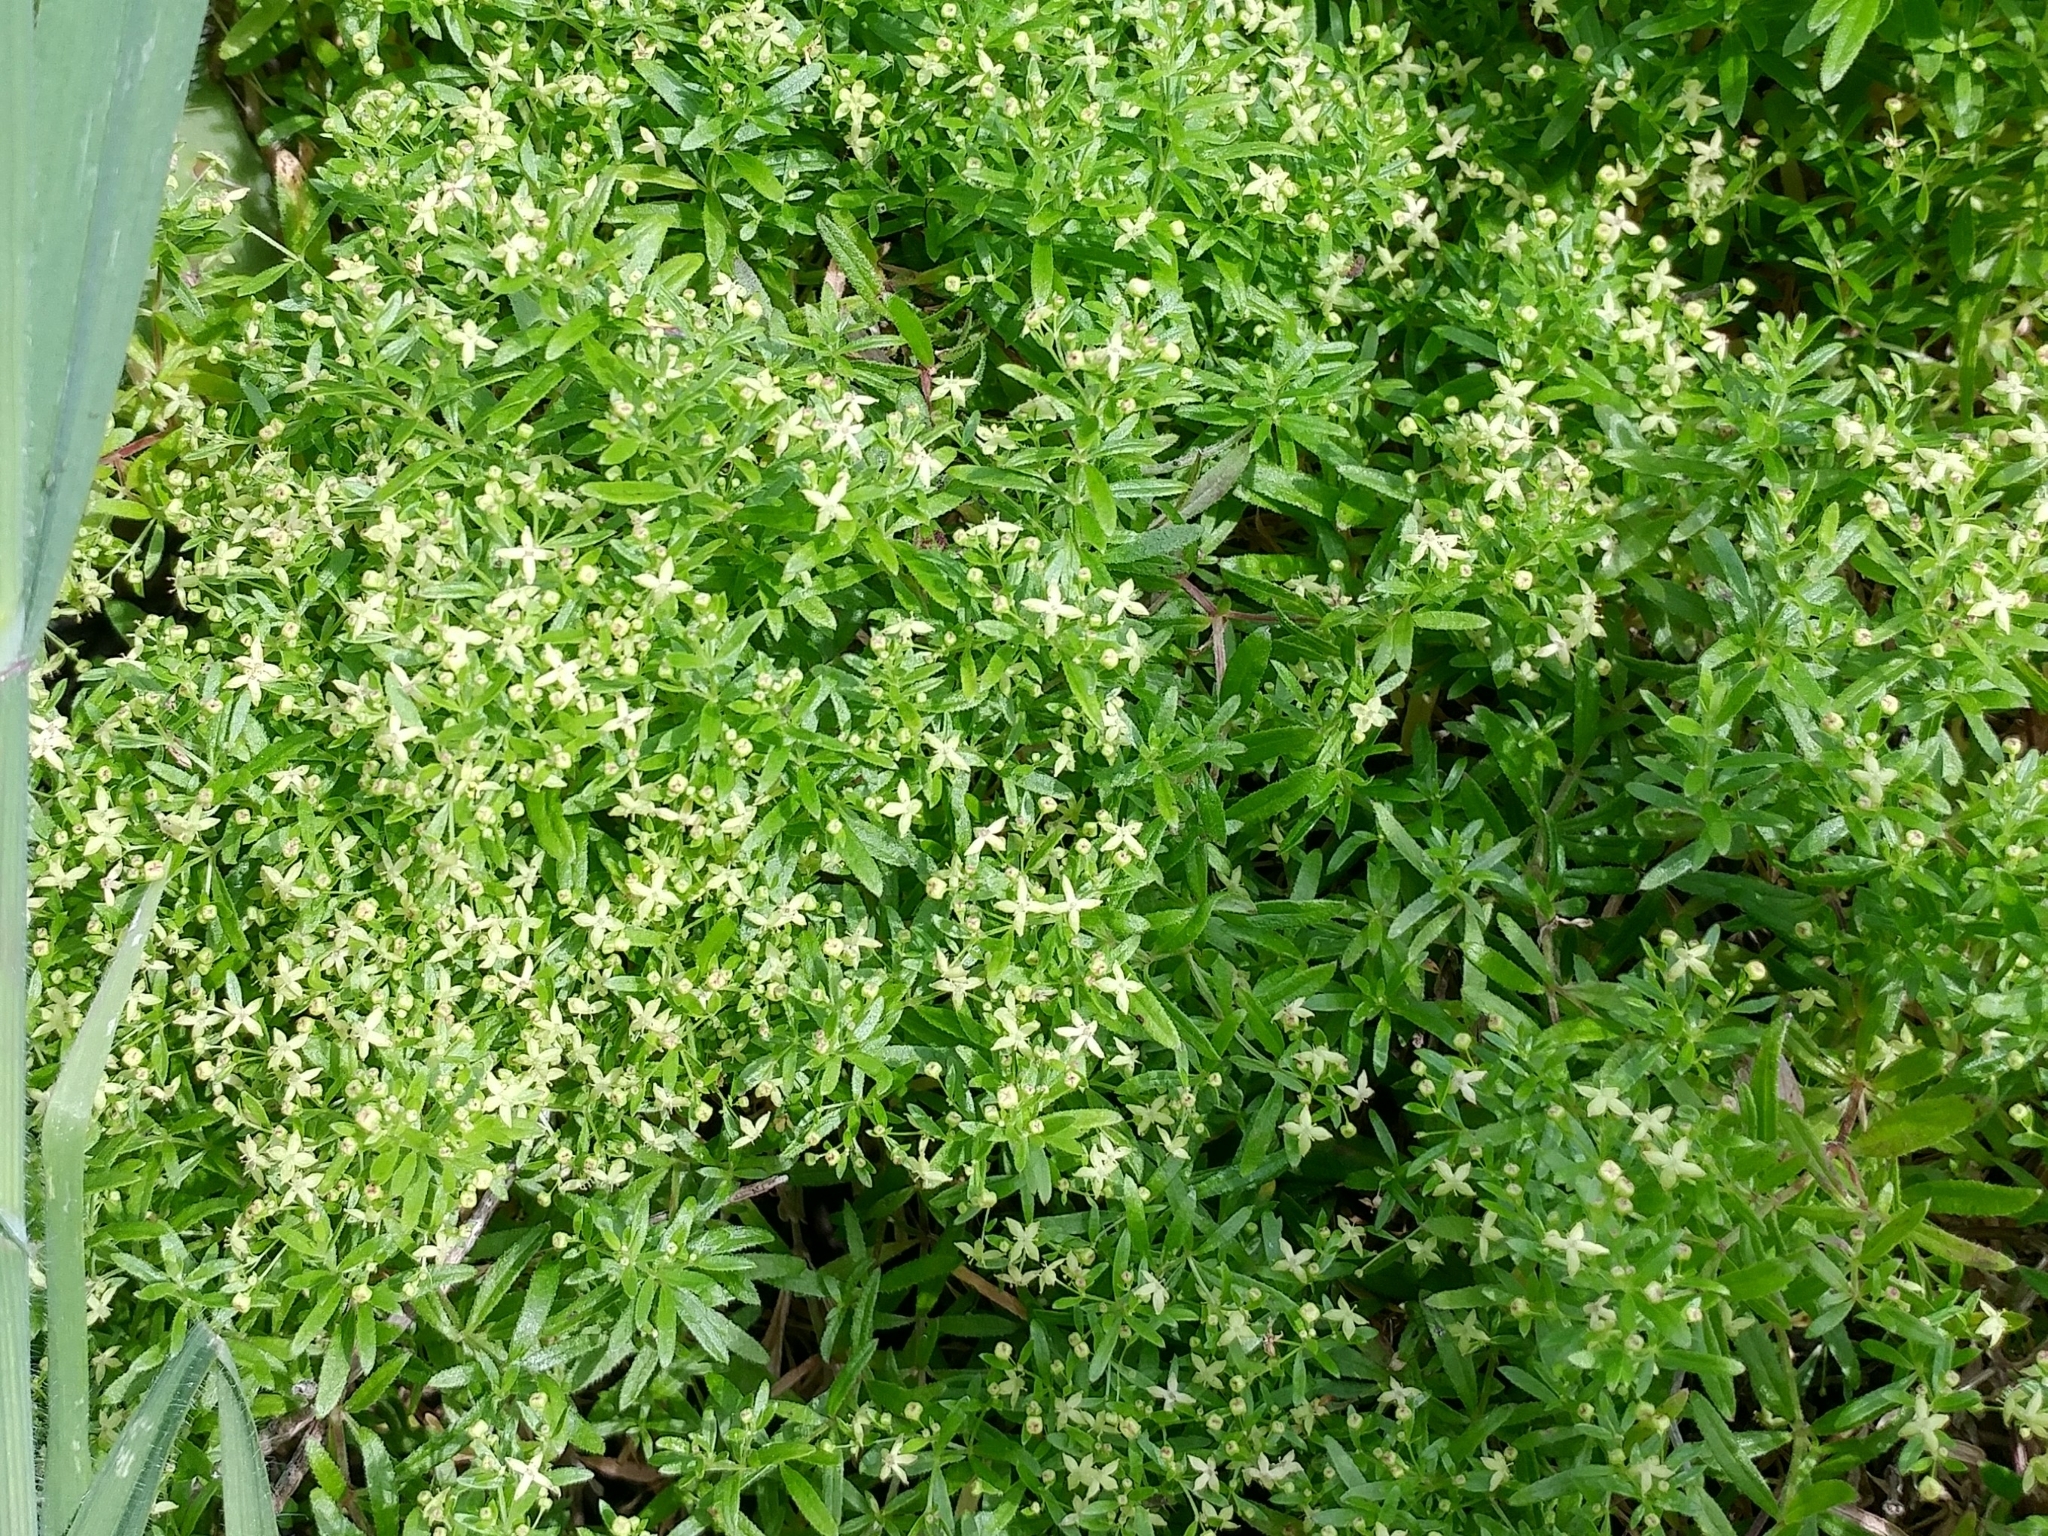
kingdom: Plantae
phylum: Tracheophyta
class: Magnoliopsida
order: Gentianales
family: Rubiaceae
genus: Galium
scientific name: Galium catalinense
